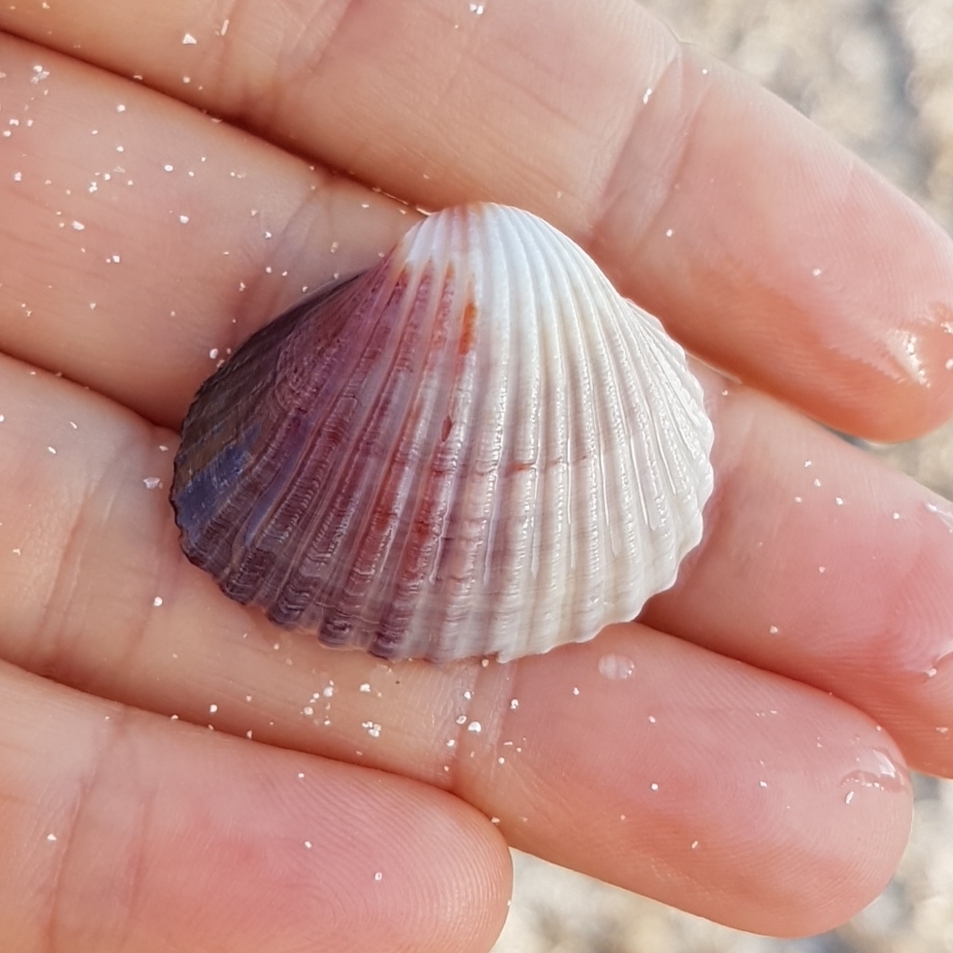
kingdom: Animalia
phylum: Mollusca
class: Bivalvia
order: Cardiida
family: Cardiidae
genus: Cerastoderma
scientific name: Cerastoderma glaucum
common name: Lagoon cockle
